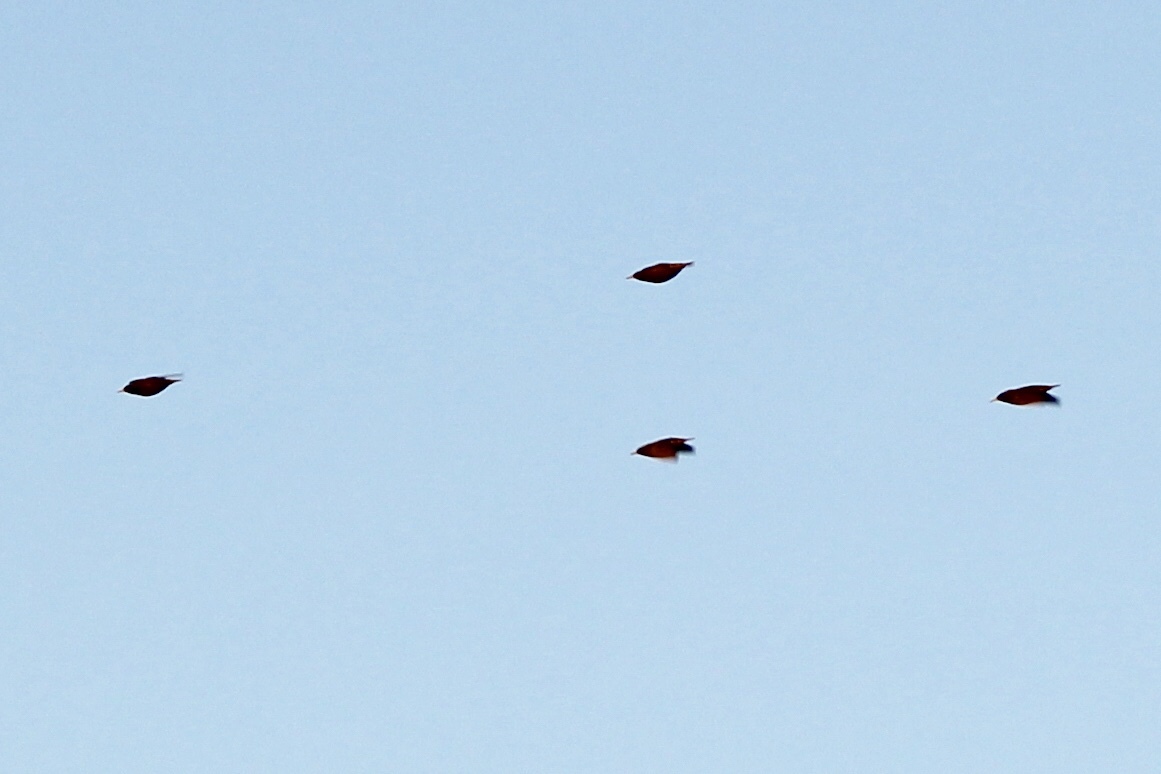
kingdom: Animalia
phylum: Chordata
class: Aves
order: Passeriformes
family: Sturnidae
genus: Sturnus
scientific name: Sturnus vulgaris
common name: Common starling
